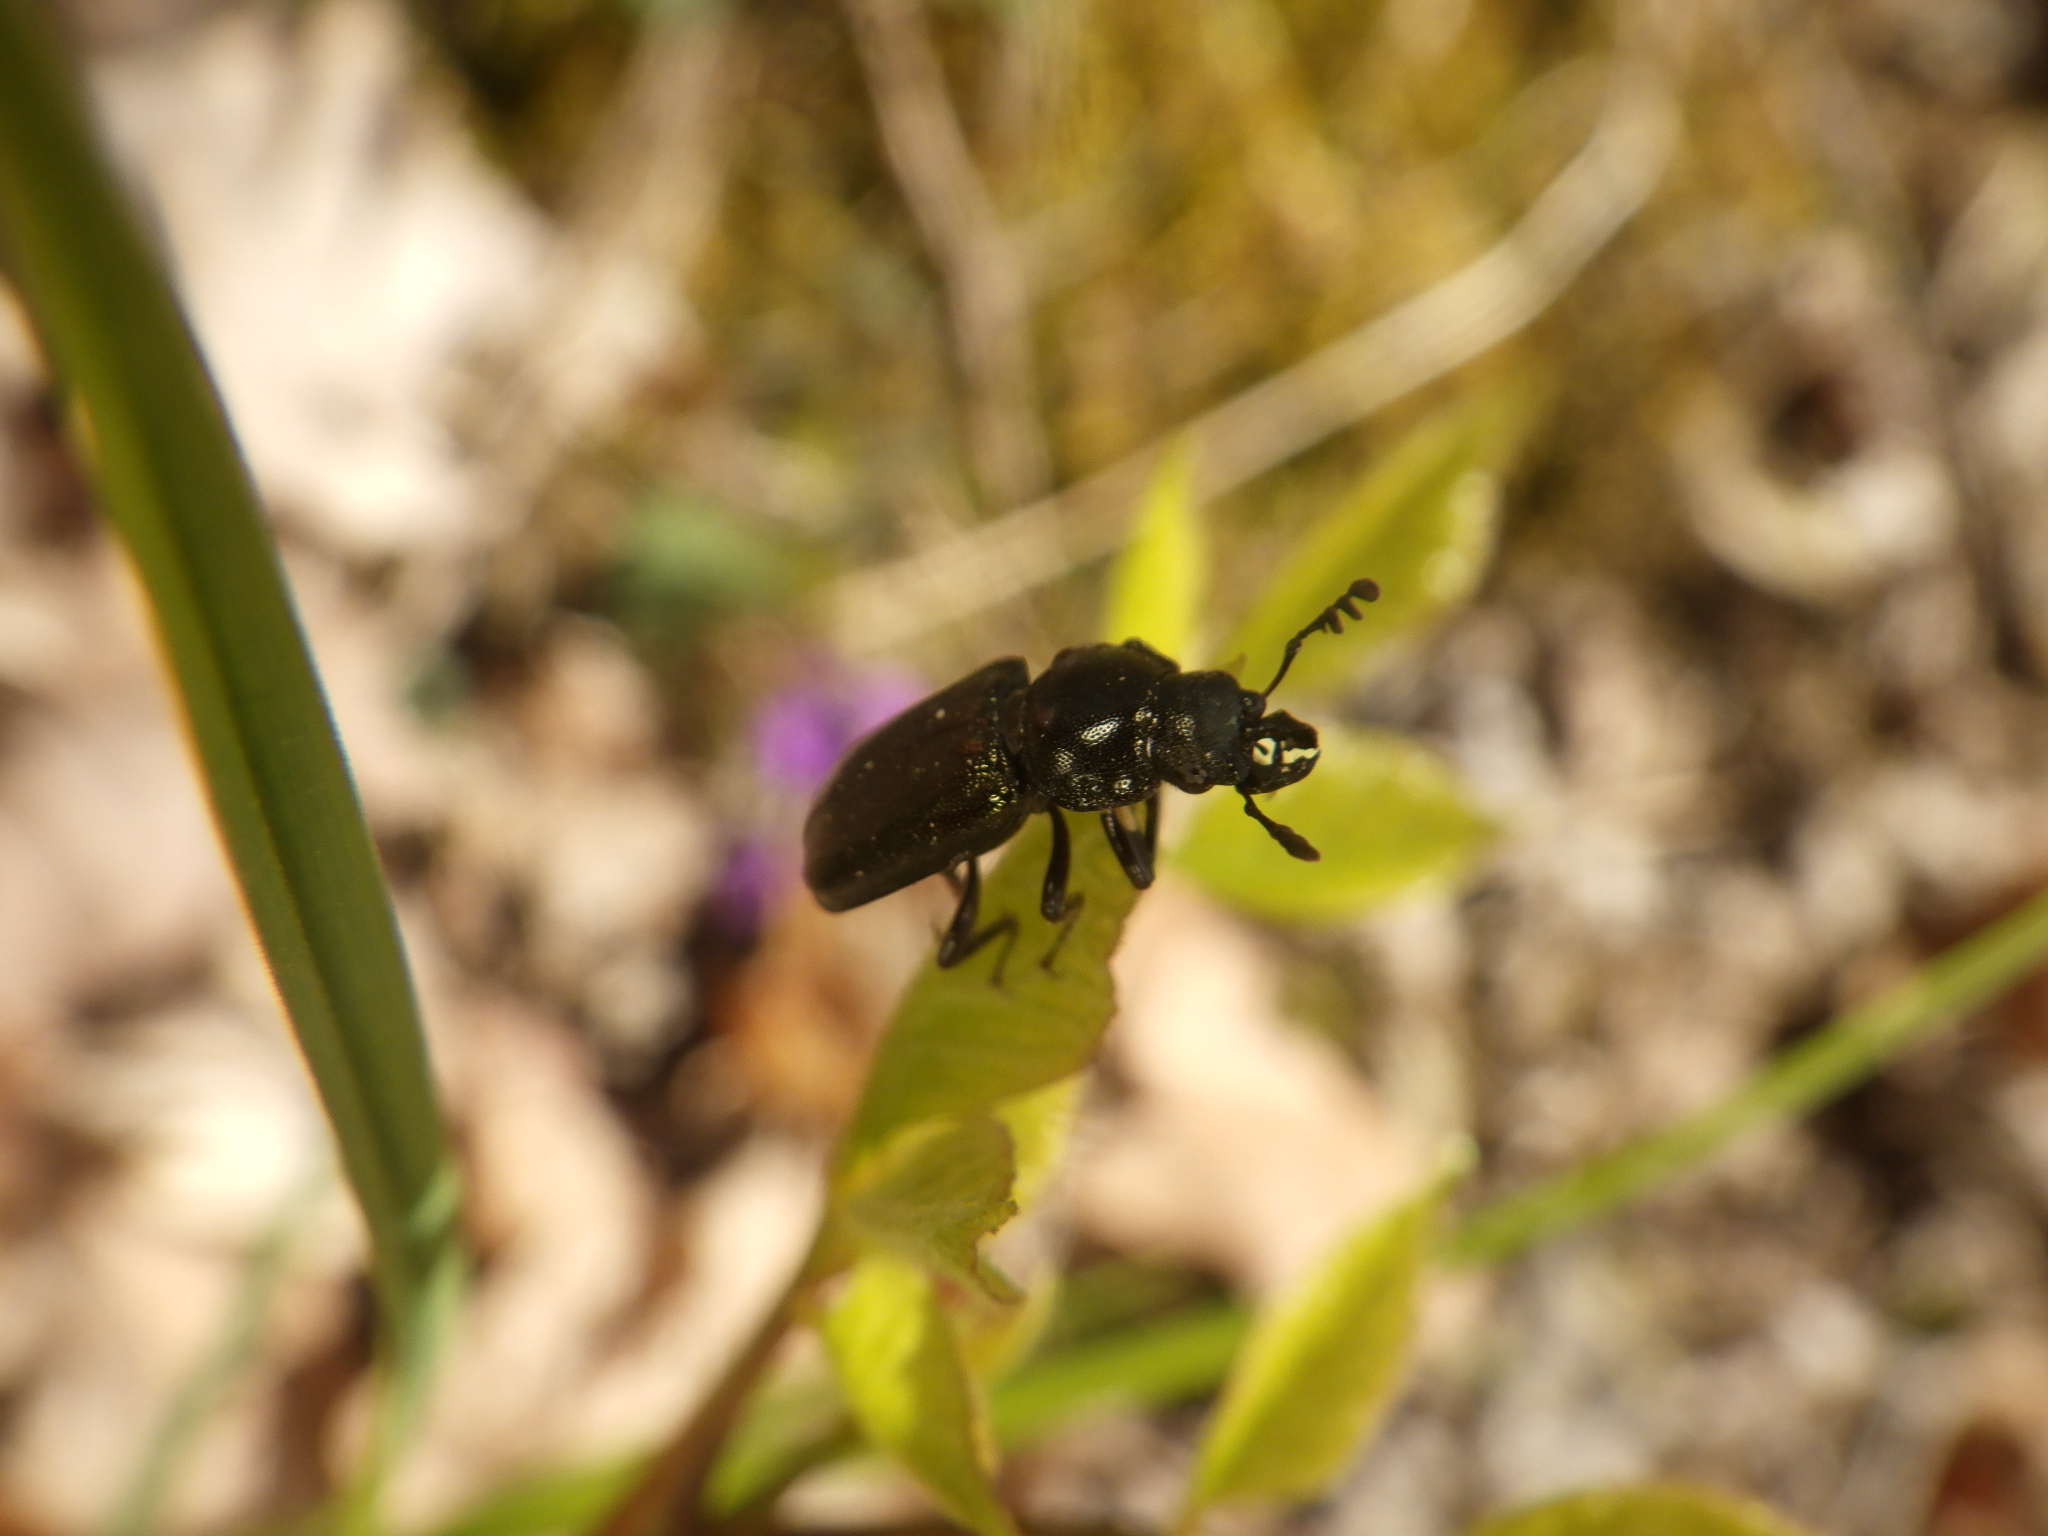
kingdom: Animalia
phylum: Arthropoda
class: Insecta
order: Coleoptera
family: Lucanidae
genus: Platycerus
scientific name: Platycerus quercus
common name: Oak stag beetle
